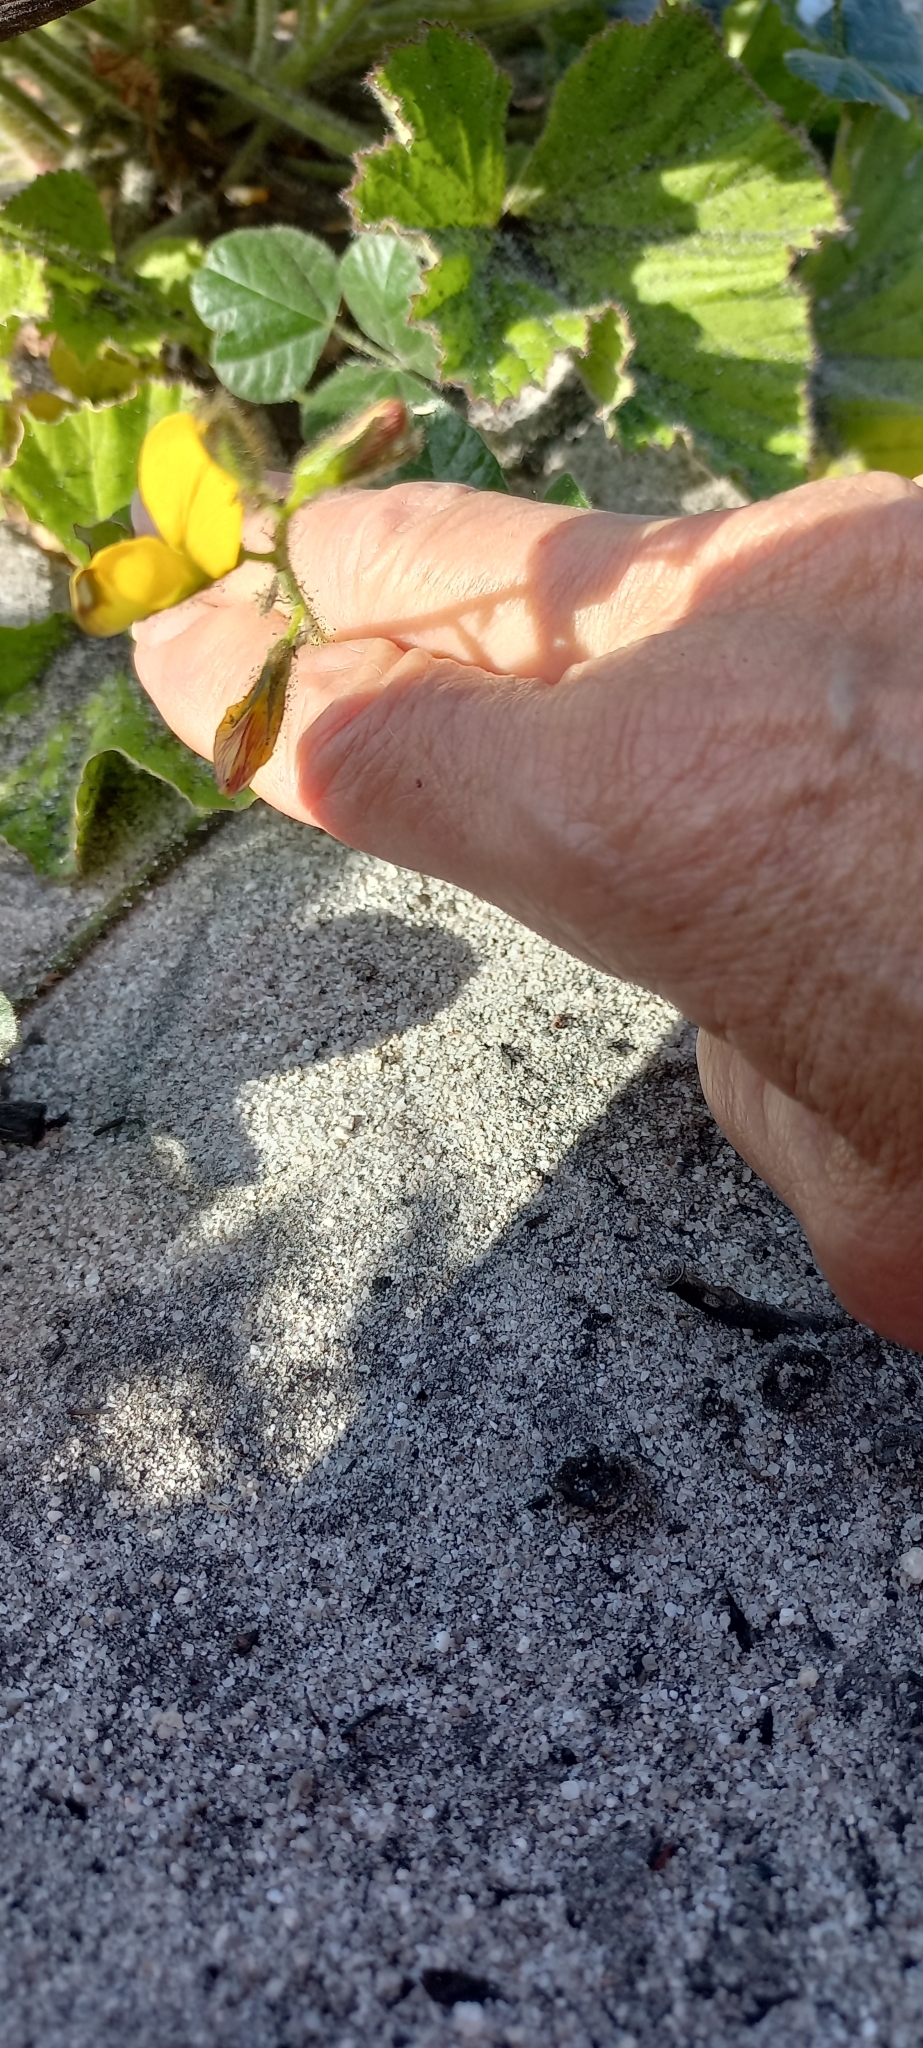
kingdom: Plantae
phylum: Tracheophyta
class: Magnoliopsida
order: Fabales
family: Fabaceae
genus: Bolusafra
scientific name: Bolusafra bituminosa
